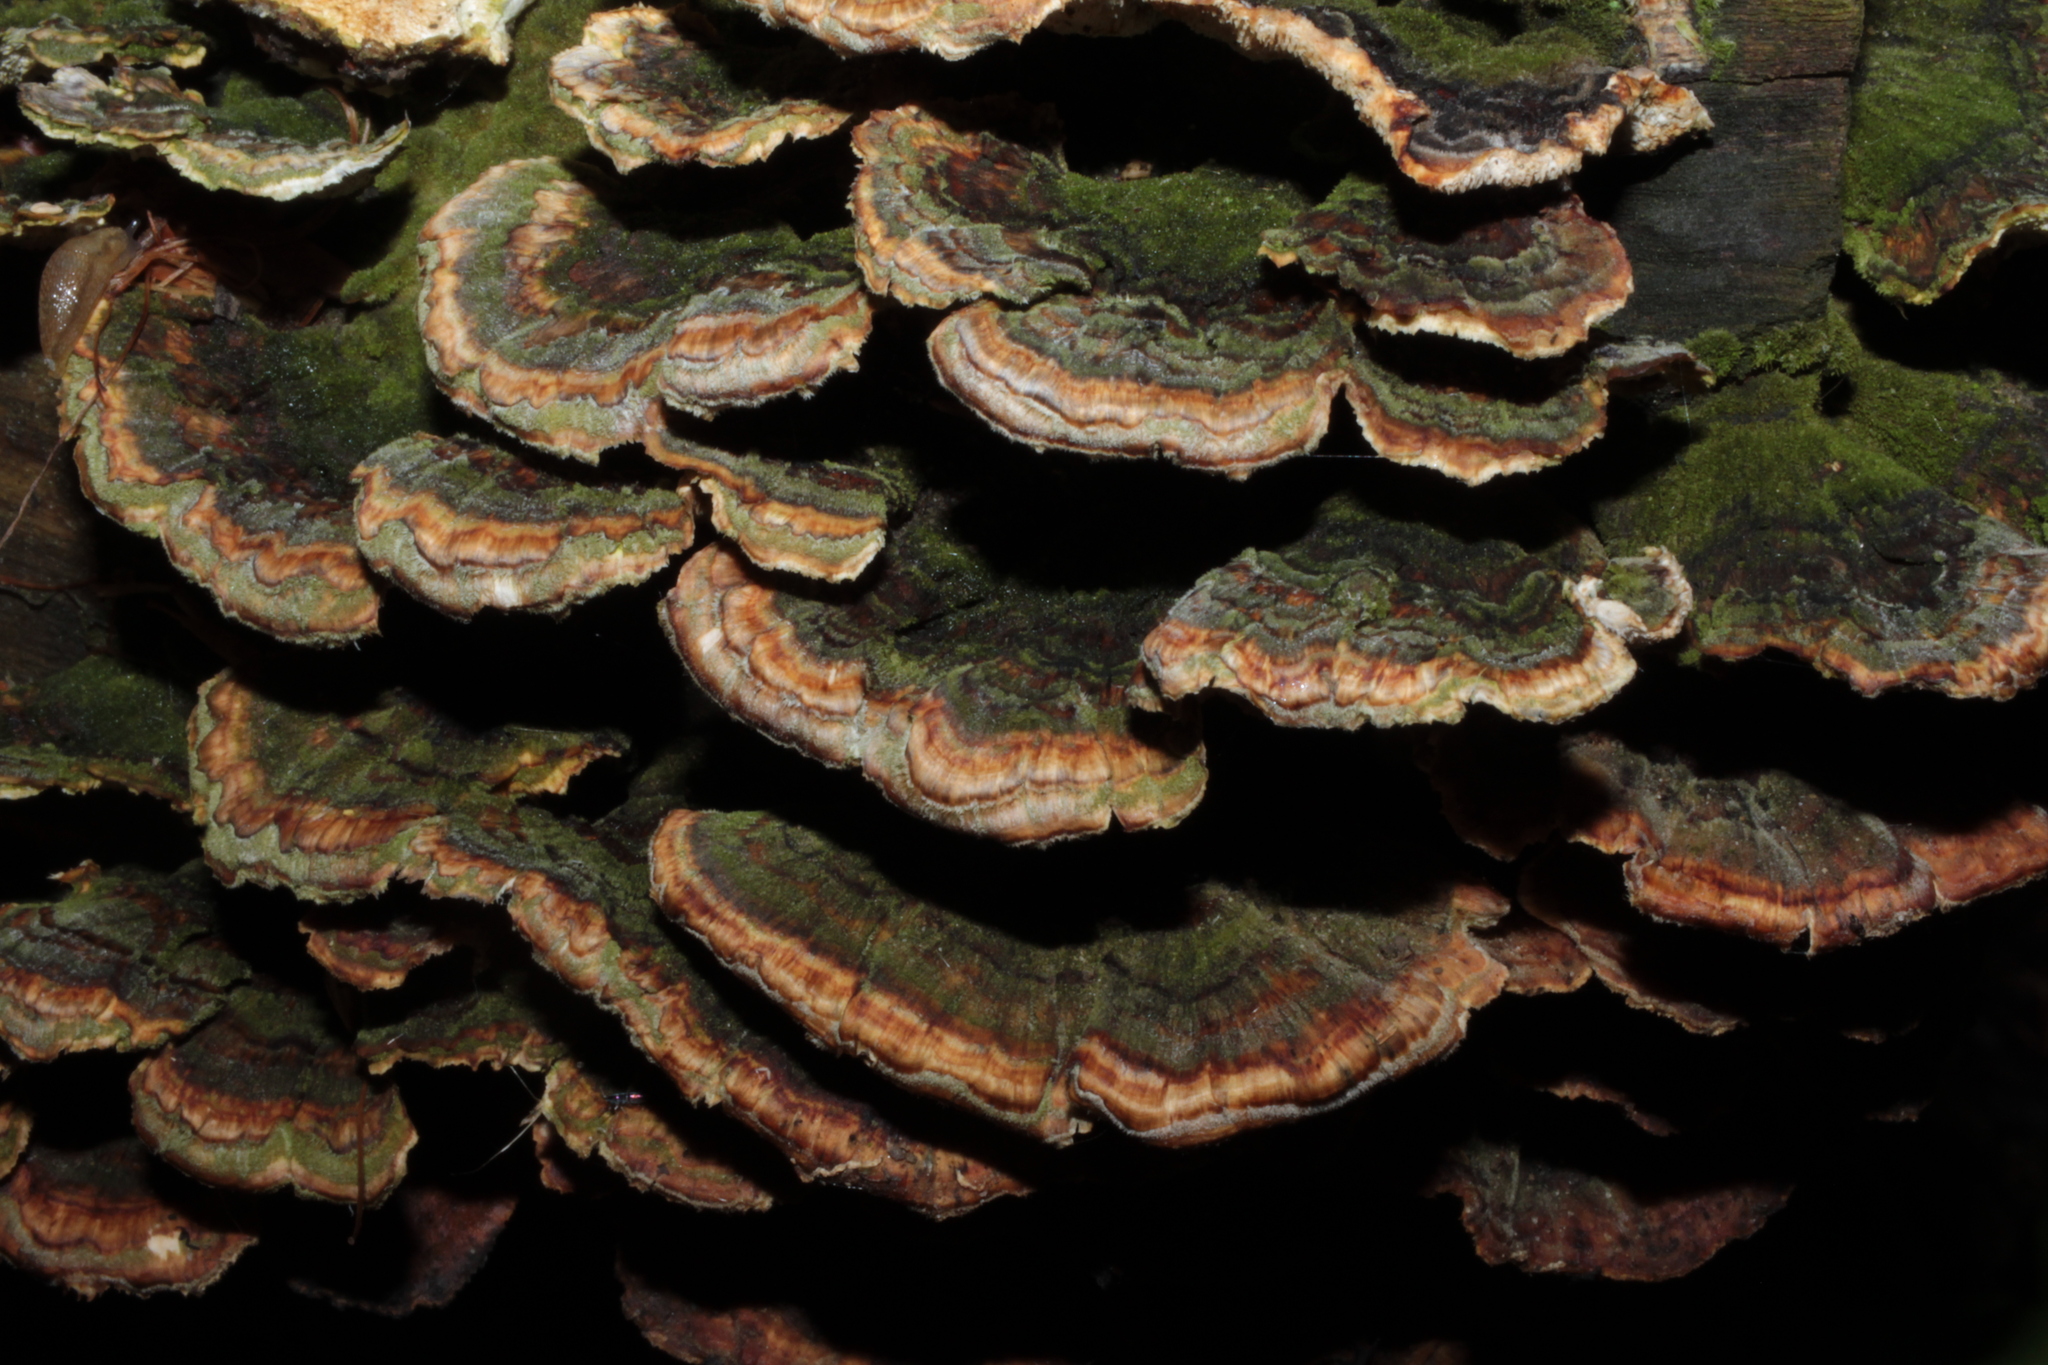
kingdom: Fungi
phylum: Basidiomycota
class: Agaricomycetes
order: Polyporales
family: Polyporaceae
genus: Trametes
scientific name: Trametes versicolor
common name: Turkeytail
